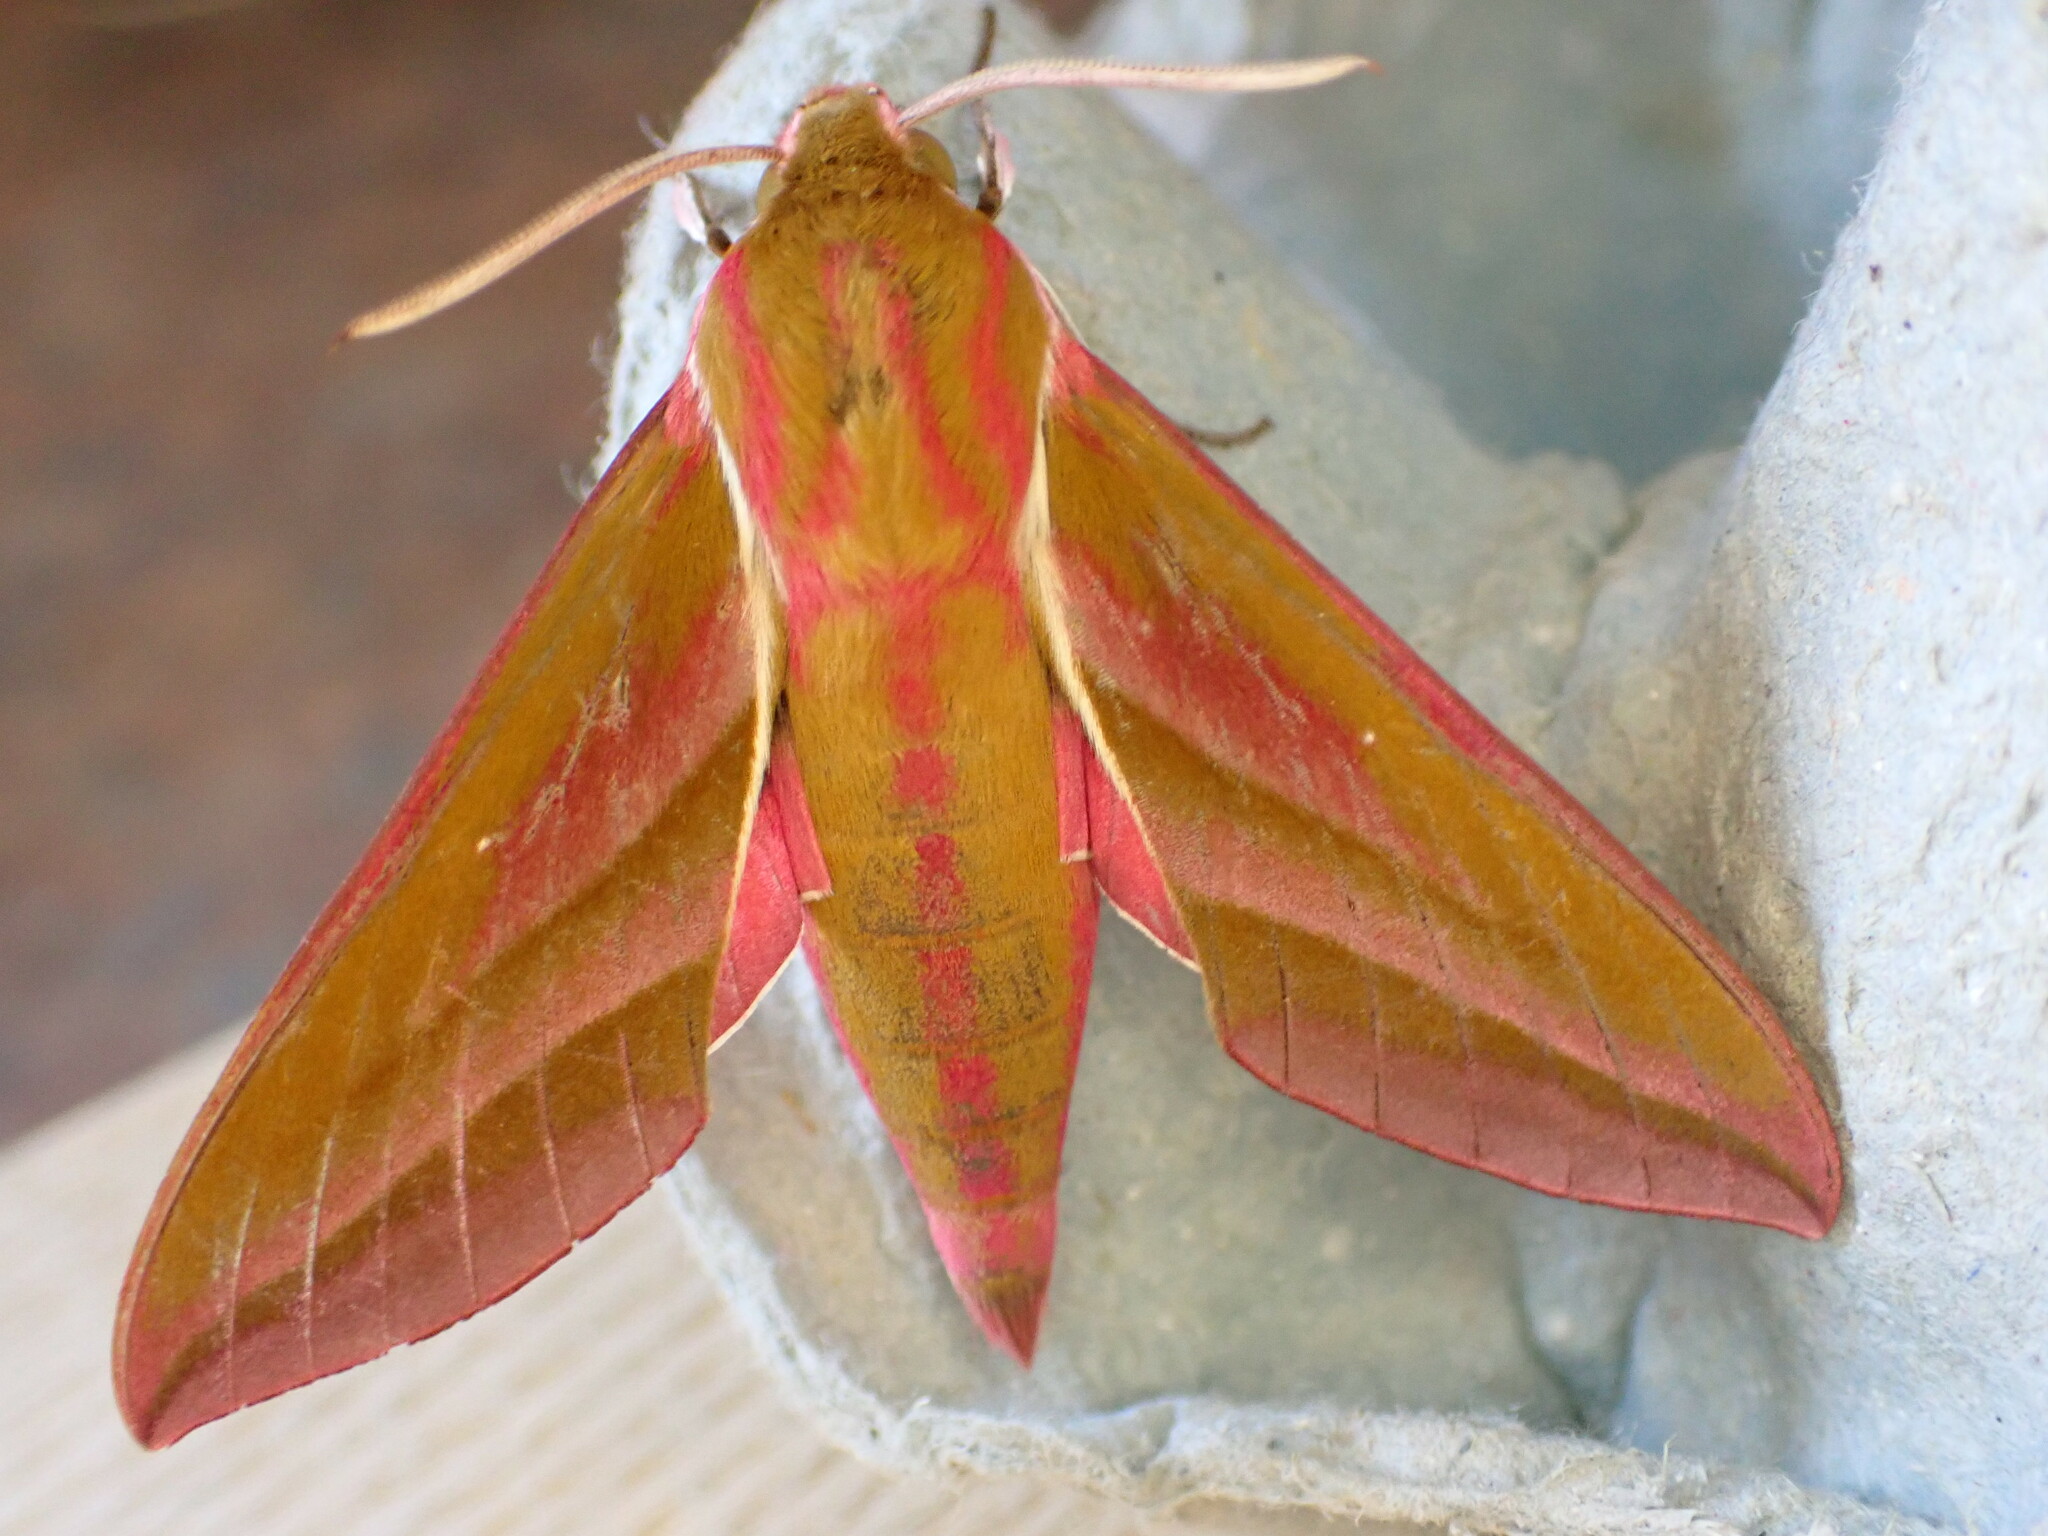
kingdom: Animalia
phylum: Arthropoda
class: Insecta
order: Lepidoptera
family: Sphingidae
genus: Deilephila
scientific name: Deilephila elpenor
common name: Elephant hawk-moth
